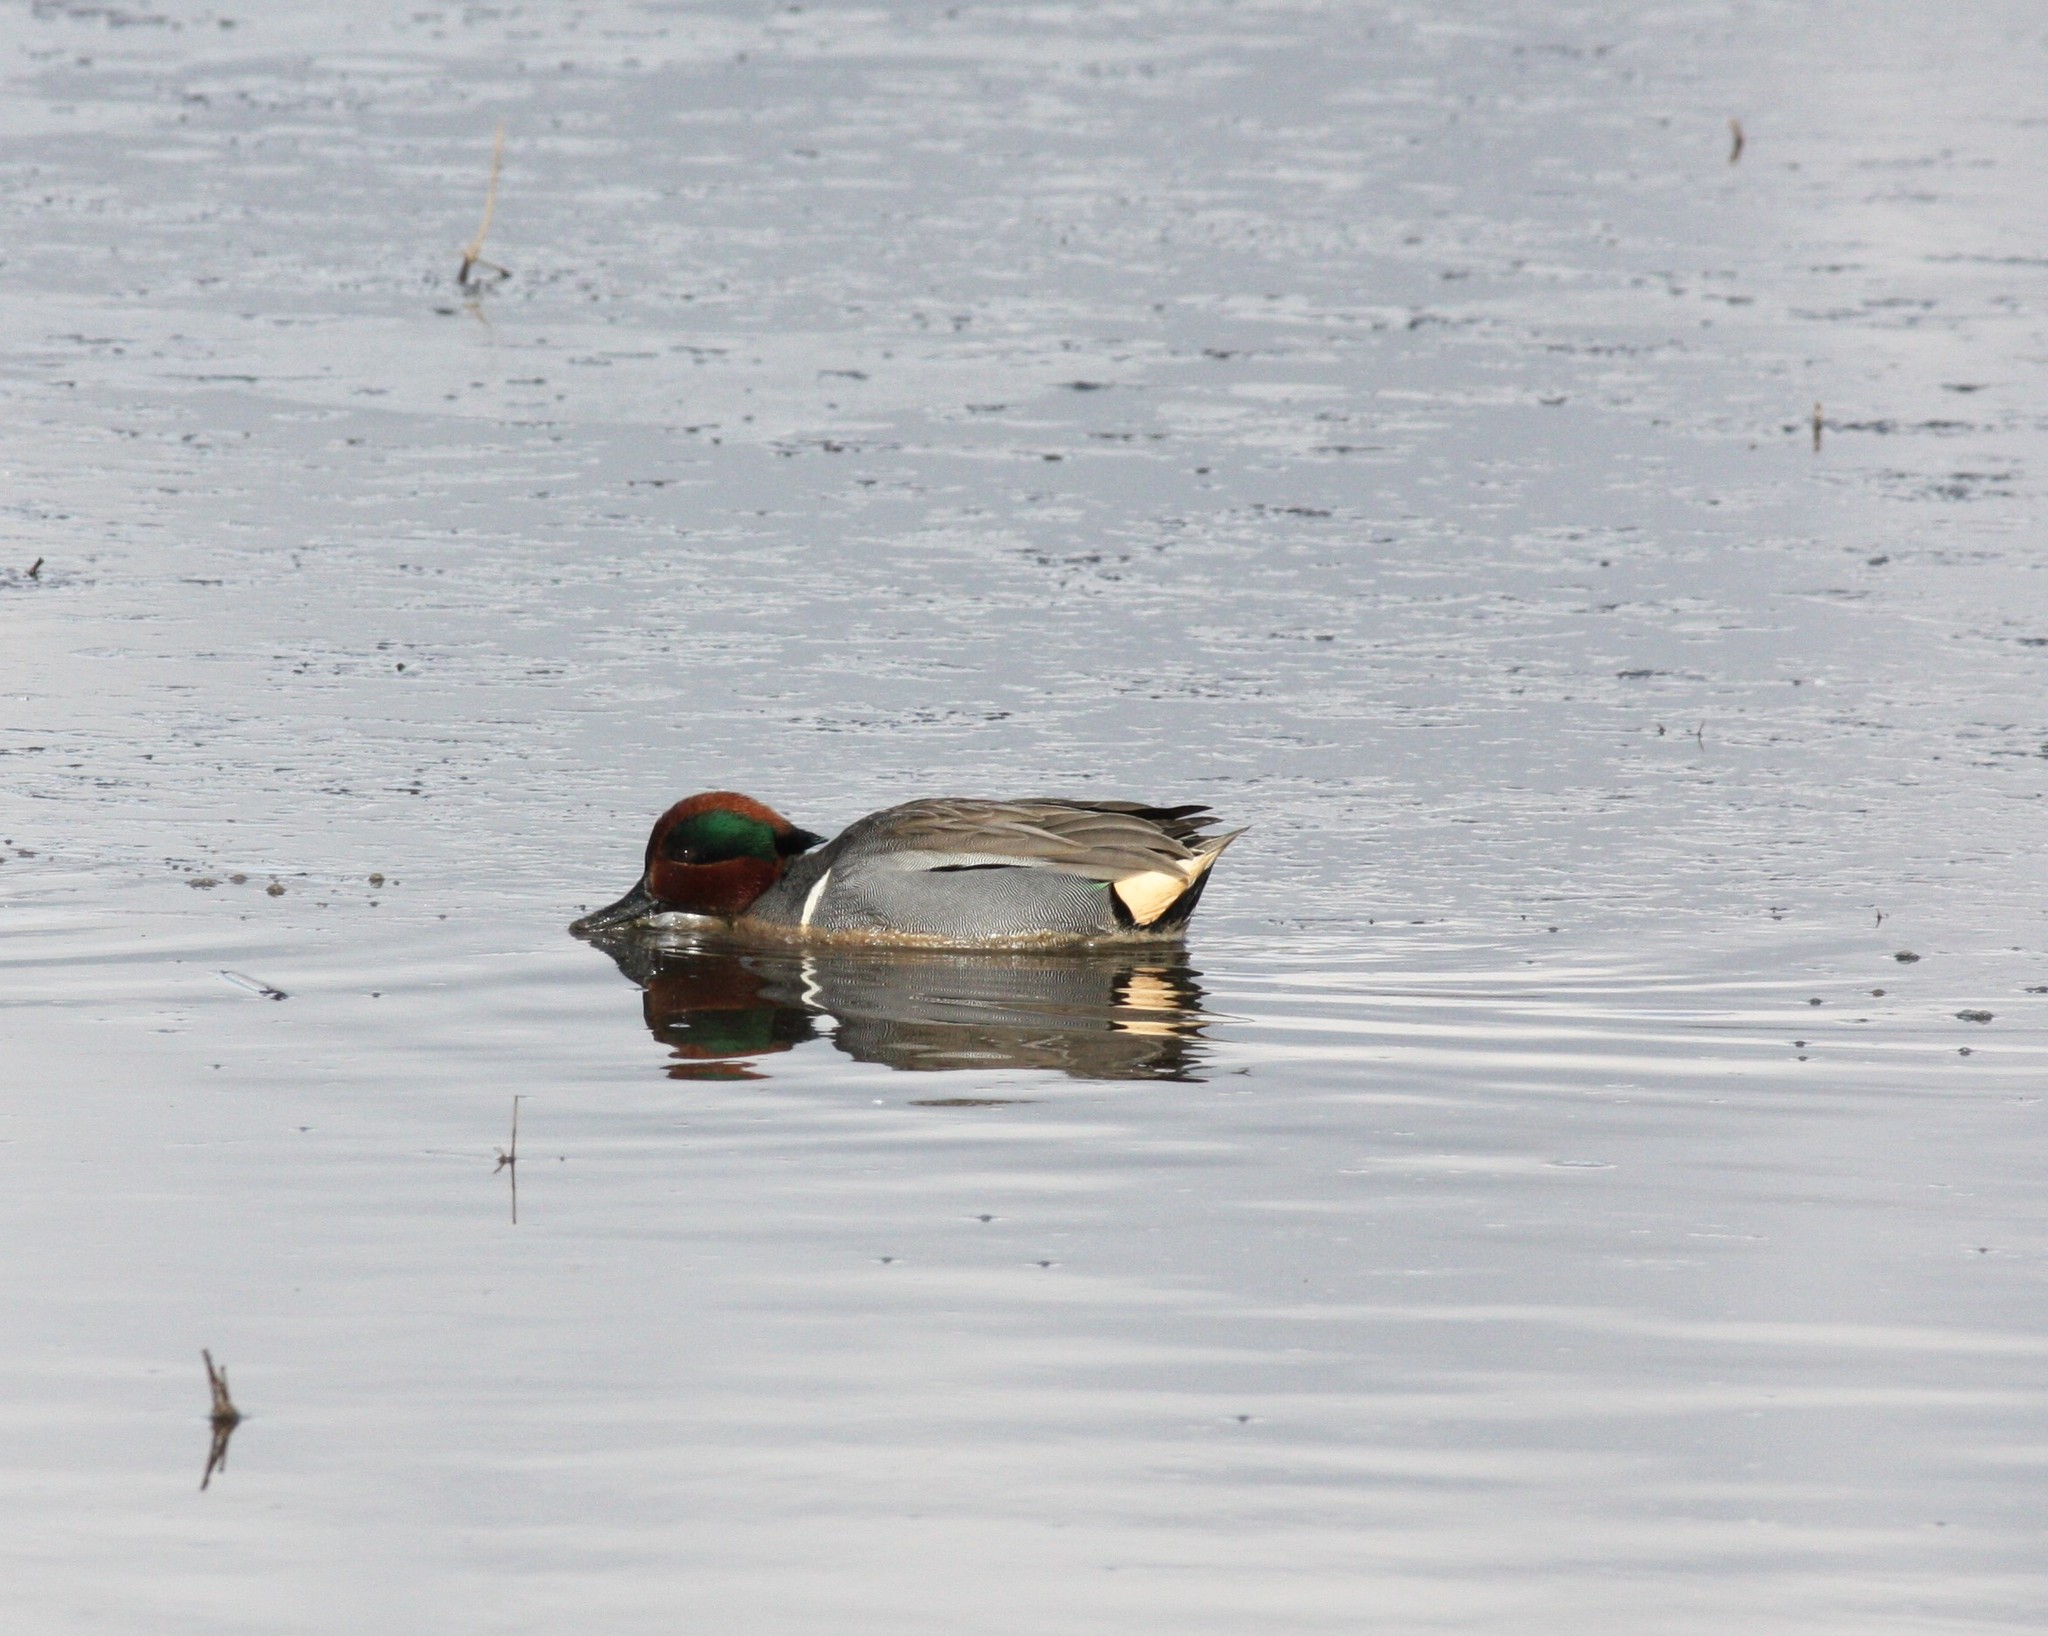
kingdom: Animalia
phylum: Chordata
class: Aves
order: Anseriformes
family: Anatidae
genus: Anas
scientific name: Anas crecca
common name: Eurasian teal
